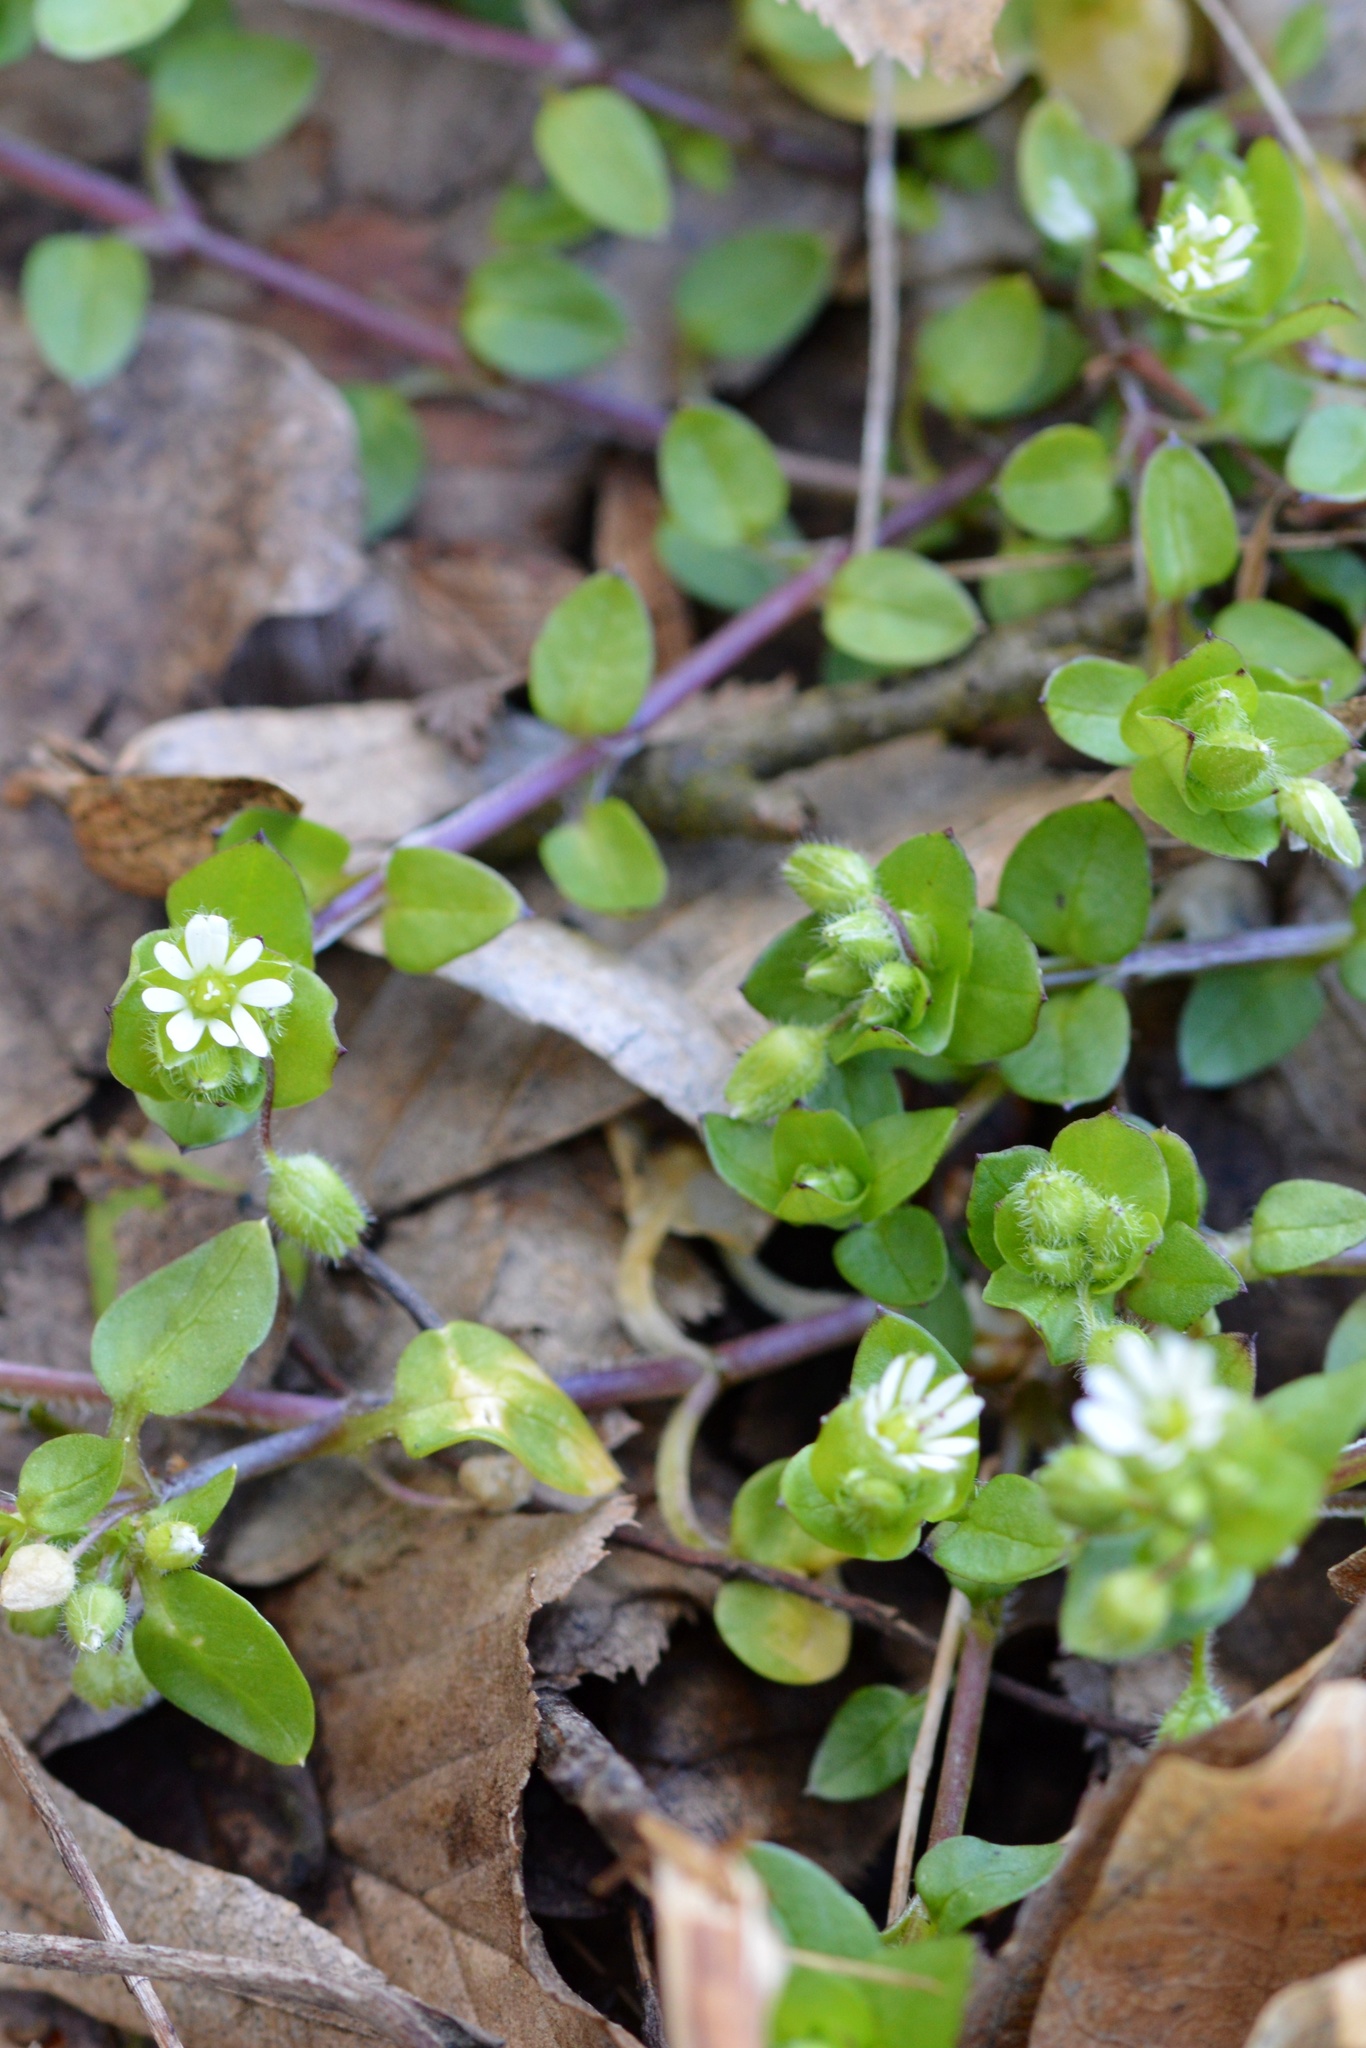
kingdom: Plantae
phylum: Tracheophyta
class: Magnoliopsida
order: Caryophyllales
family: Caryophyllaceae
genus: Stellaria
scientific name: Stellaria media
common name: Common chickweed
